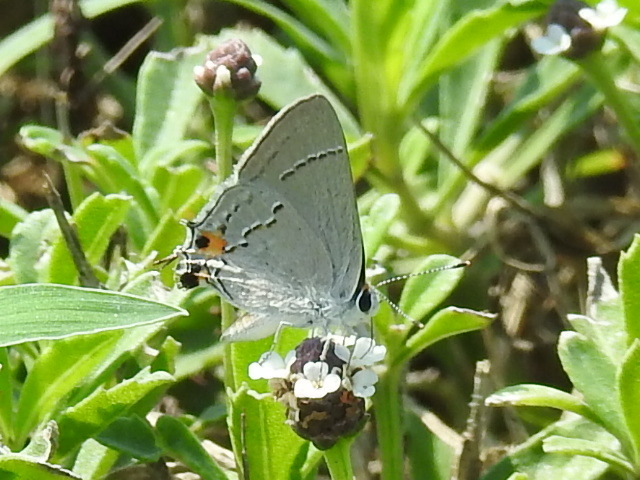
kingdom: Animalia
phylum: Arthropoda
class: Insecta
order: Lepidoptera
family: Lycaenidae
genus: Strymon
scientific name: Strymon melinus
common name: Gray hairstreak
